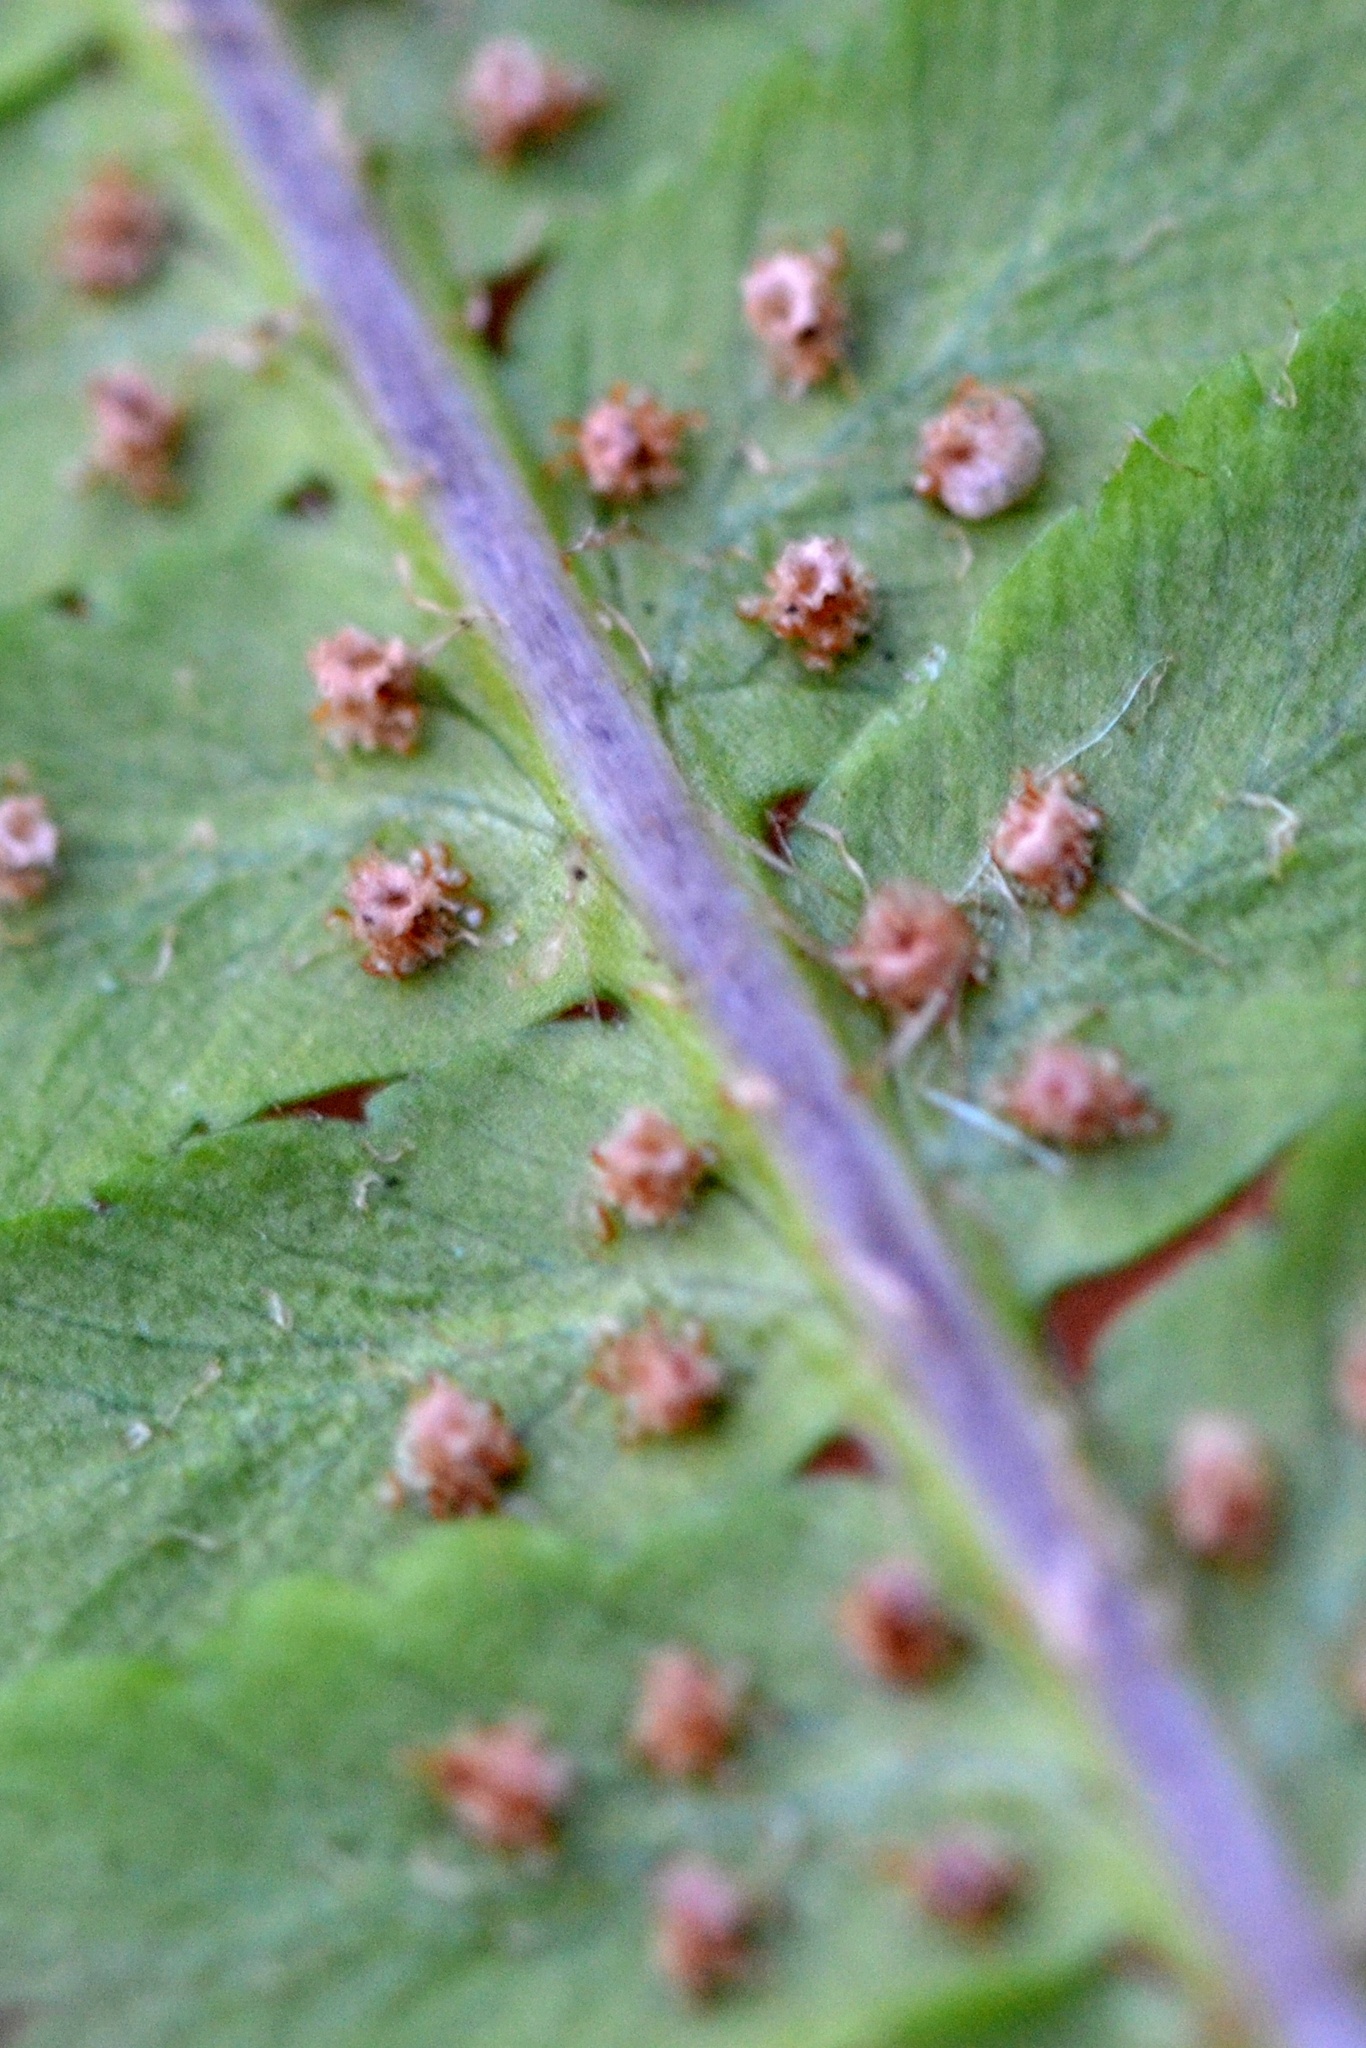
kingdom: Plantae
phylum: Tracheophyta
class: Polypodiopsida
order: Polypodiales
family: Dryopteridaceae
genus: Dryopteris
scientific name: Dryopteris filix-mas
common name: Male fern
